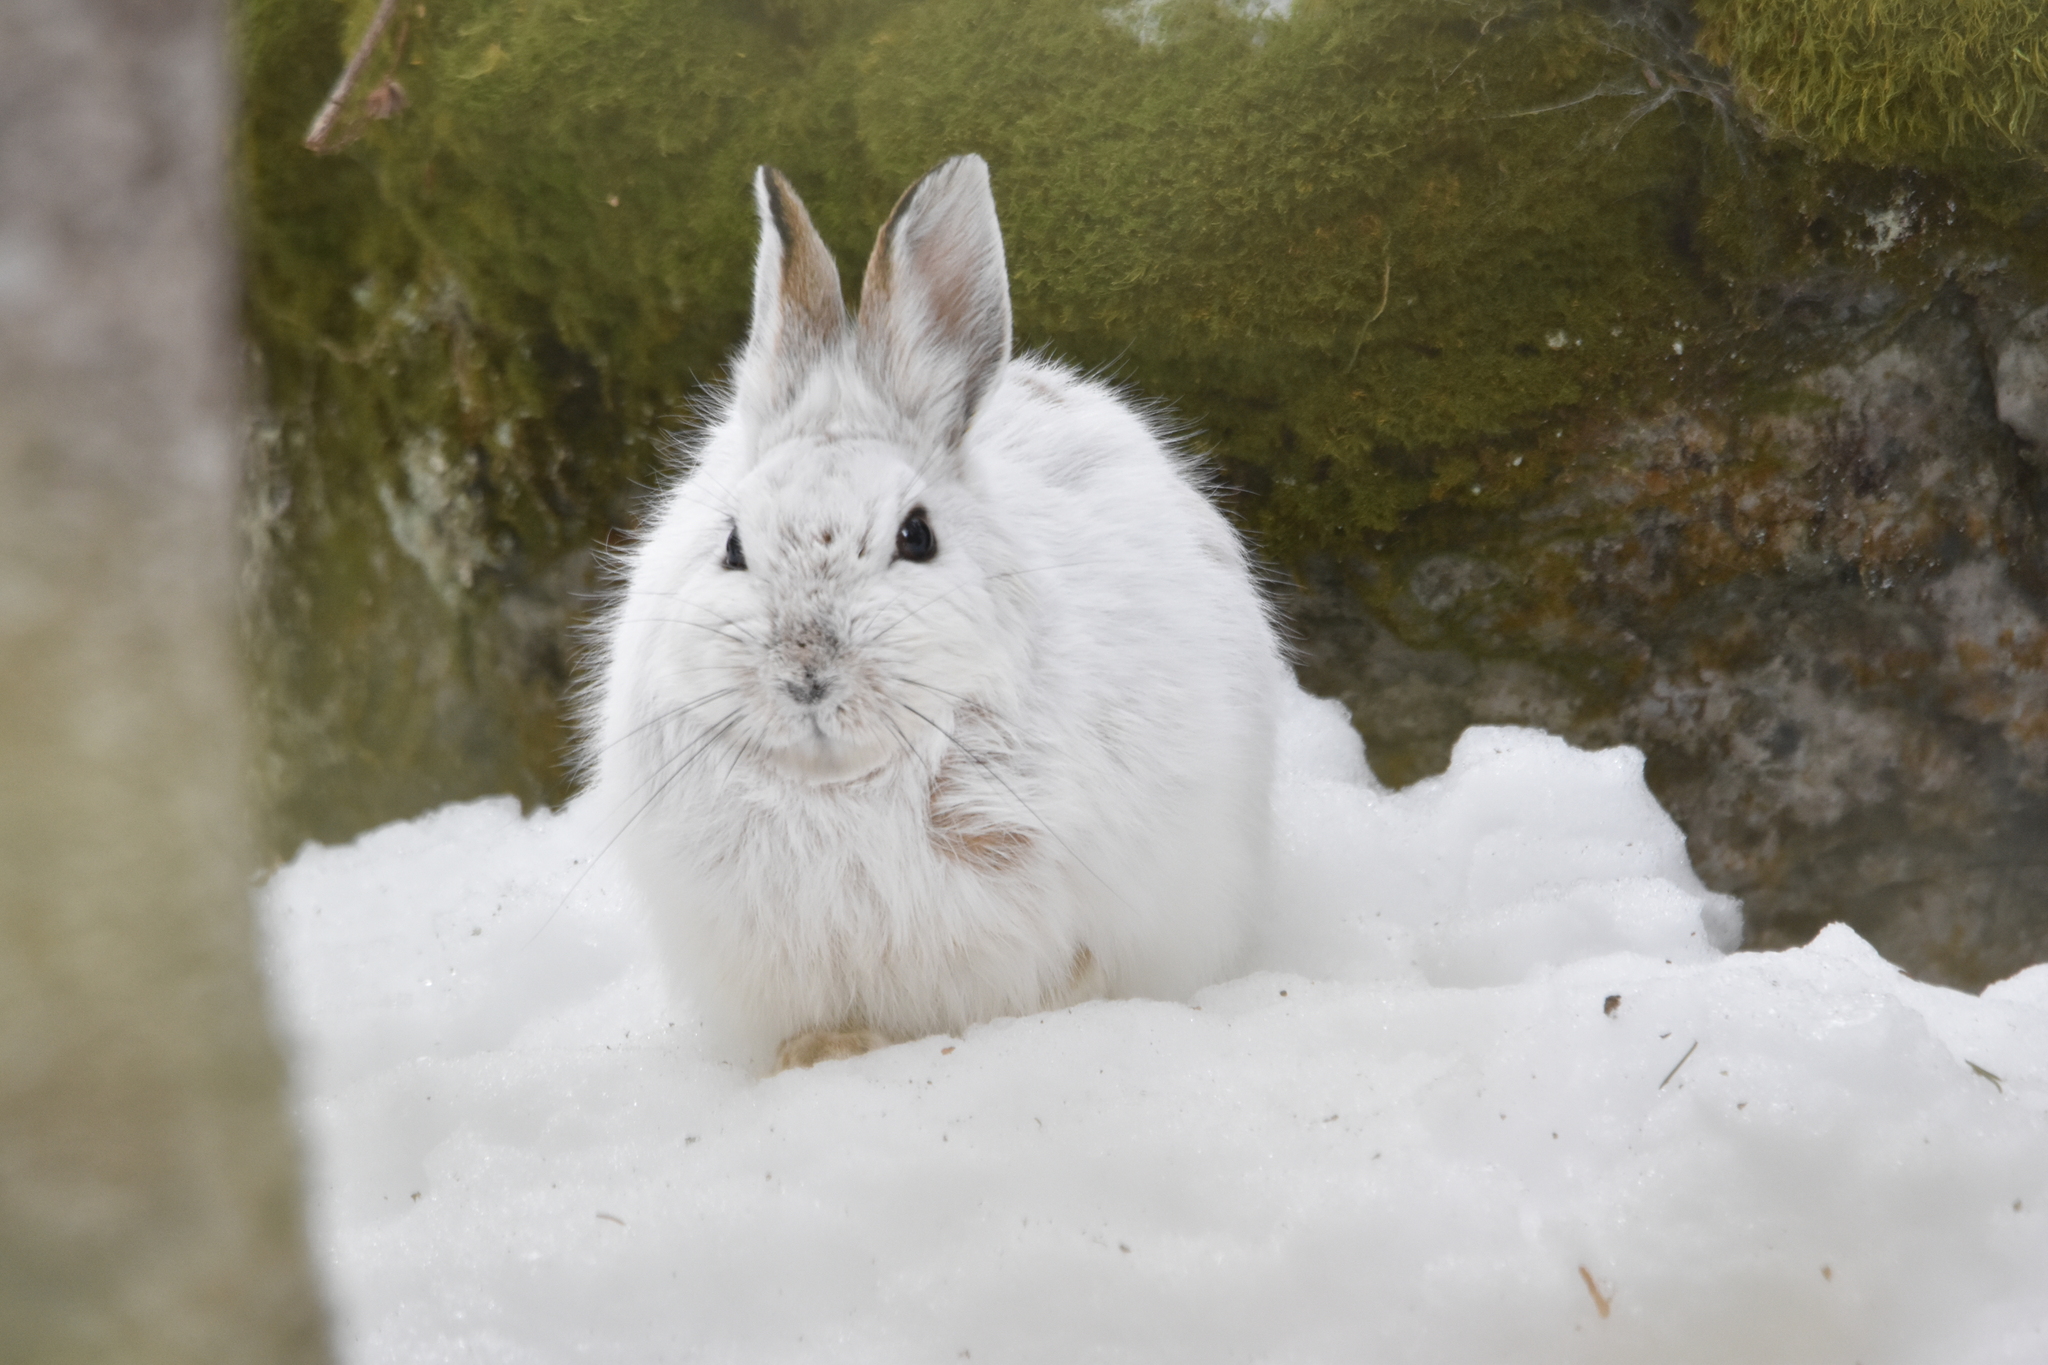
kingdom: Animalia
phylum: Chordata
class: Mammalia
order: Lagomorpha
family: Leporidae
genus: Lepus
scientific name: Lepus americanus
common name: Snowshoe hare
